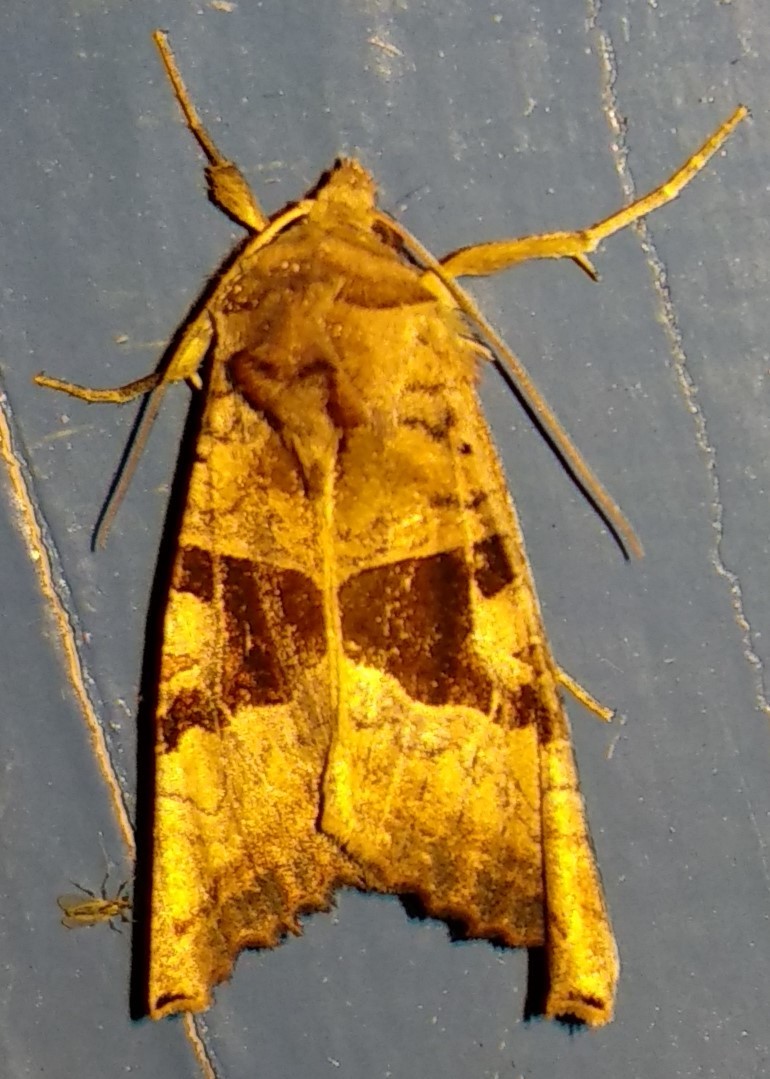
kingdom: Animalia
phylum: Arthropoda
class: Insecta
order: Lepidoptera
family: Noctuidae
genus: Phlogophora
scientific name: Phlogophora periculosa
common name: Brown angle shades
